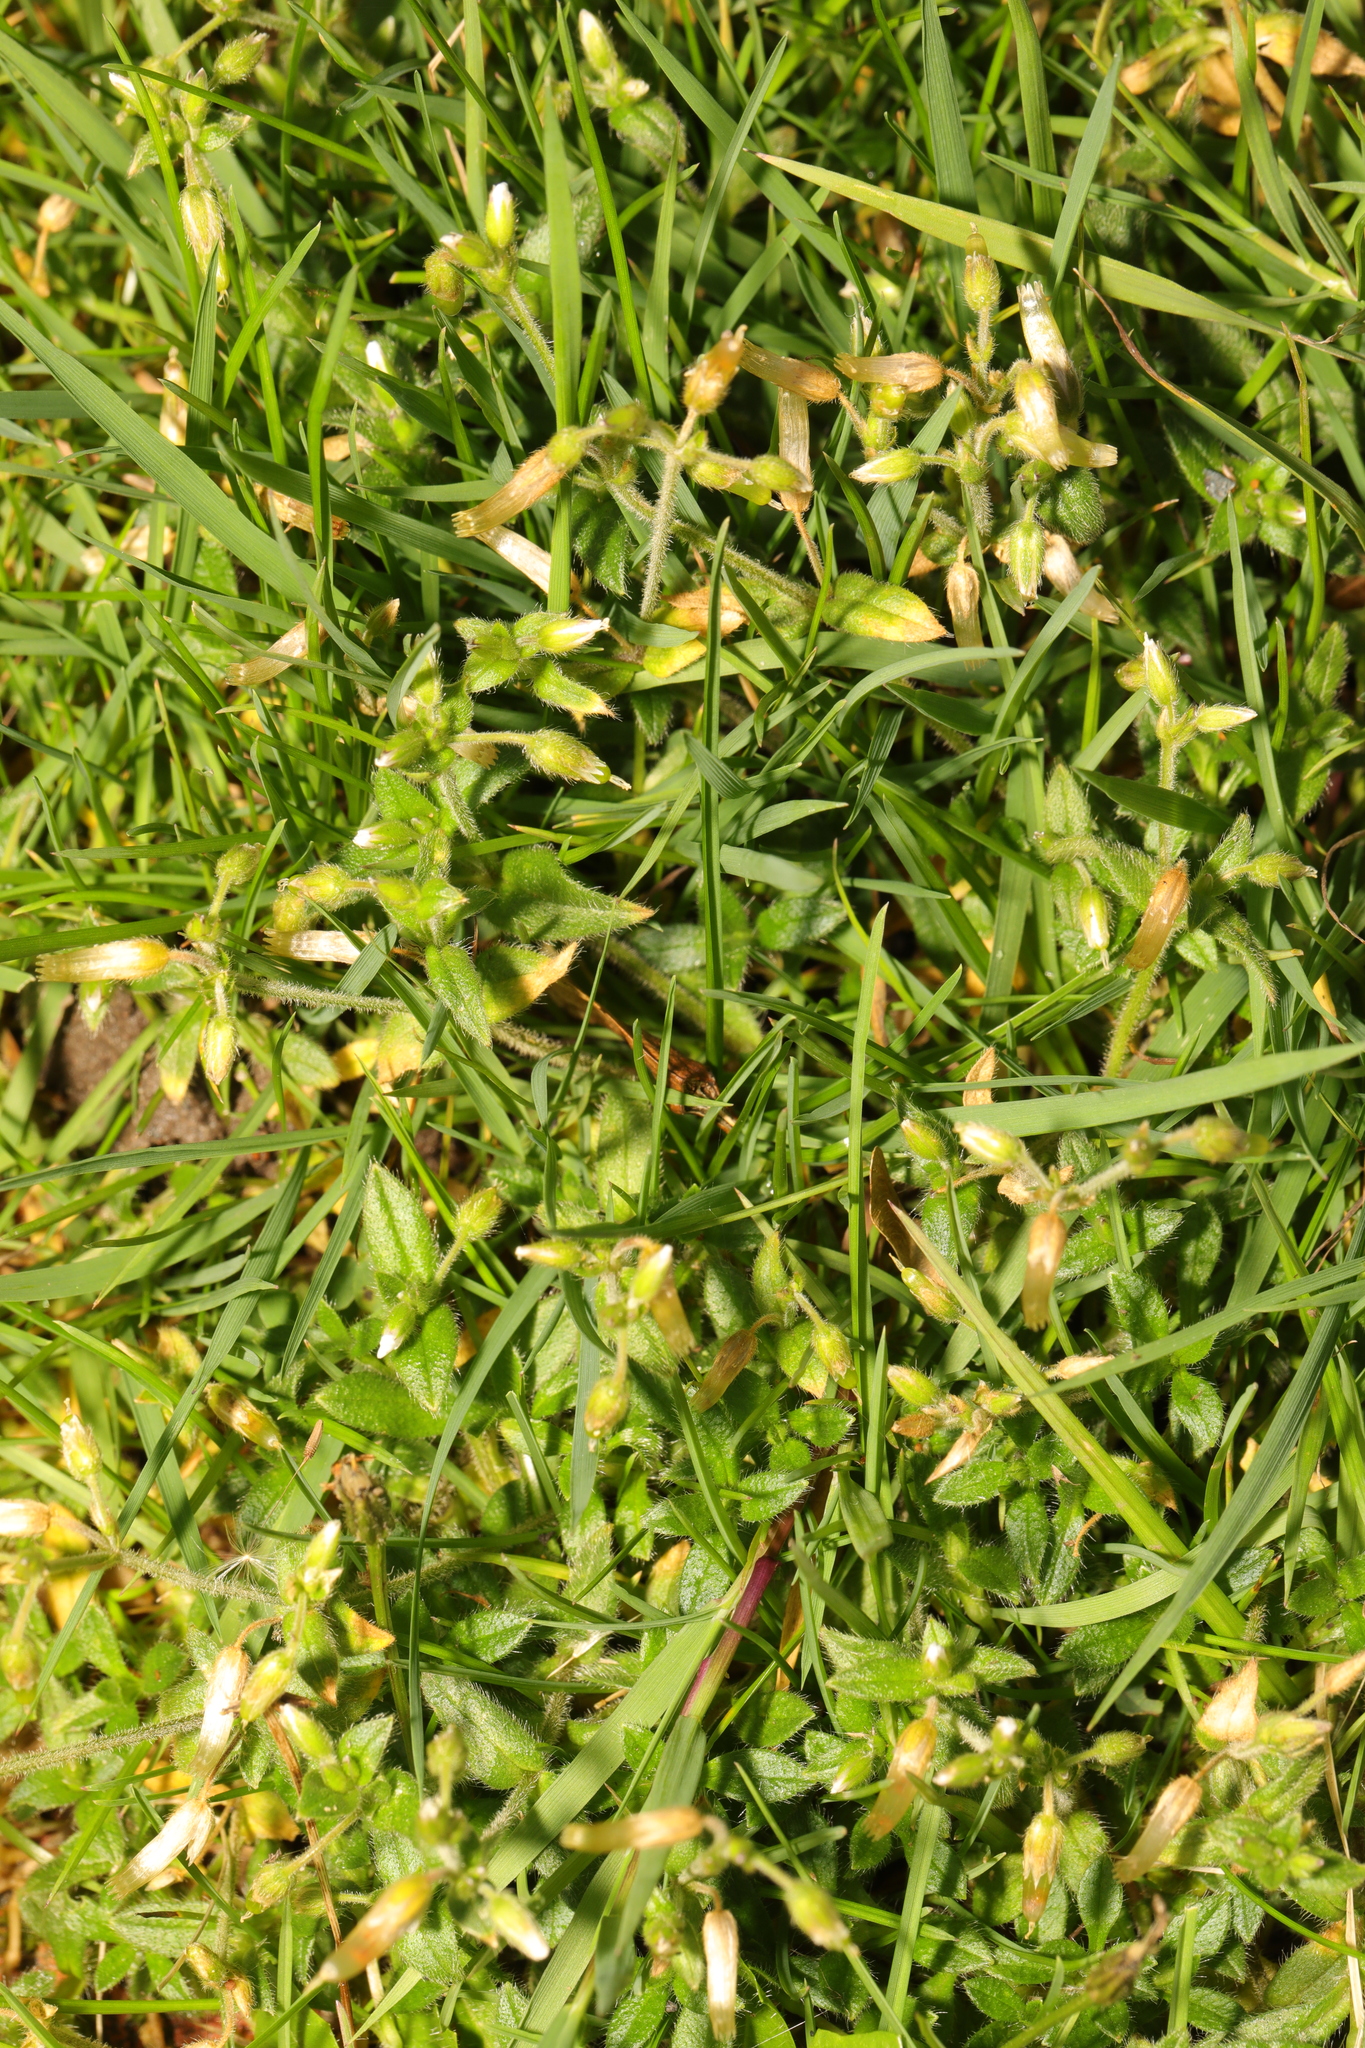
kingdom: Plantae
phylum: Tracheophyta
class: Magnoliopsida
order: Caryophyllales
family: Caryophyllaceae
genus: Cerastium
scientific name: Cerastium fontanum
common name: Common mouse-ear
